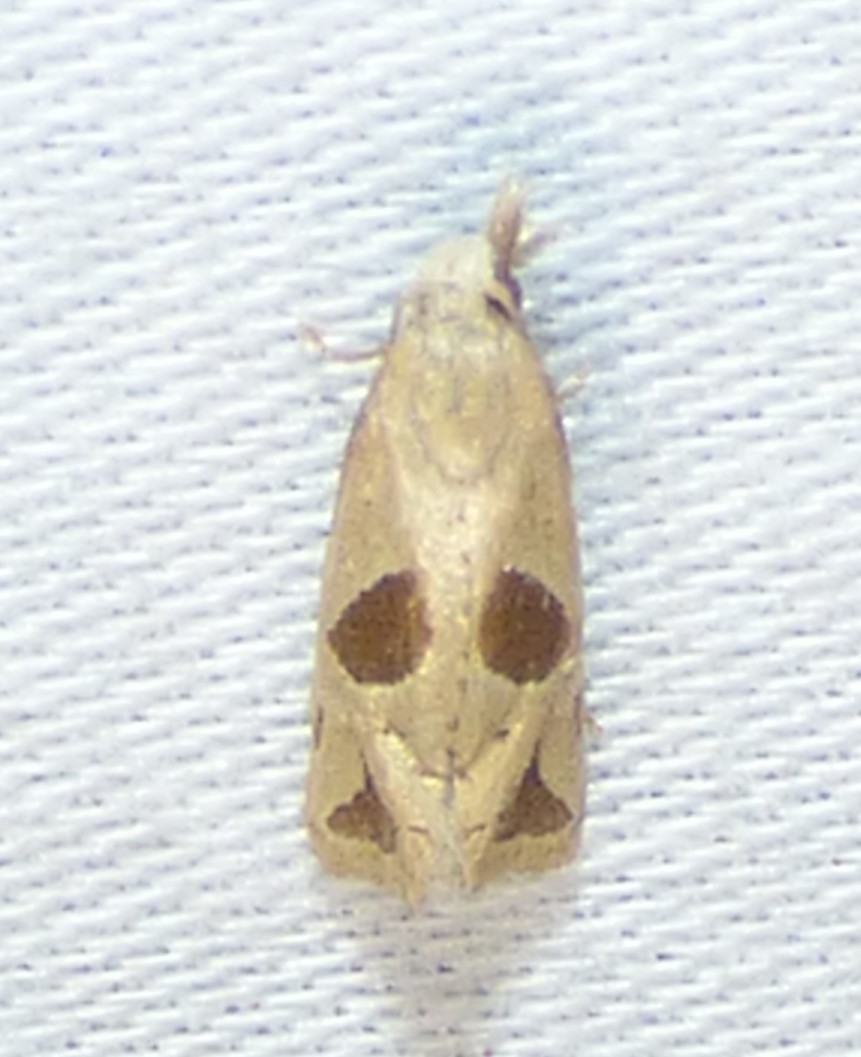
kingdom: Animalia
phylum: Arthropoda
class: Insecta
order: Lepidoptera
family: Tortricidae
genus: Eugnosta
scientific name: Eugnosta bimaculana
